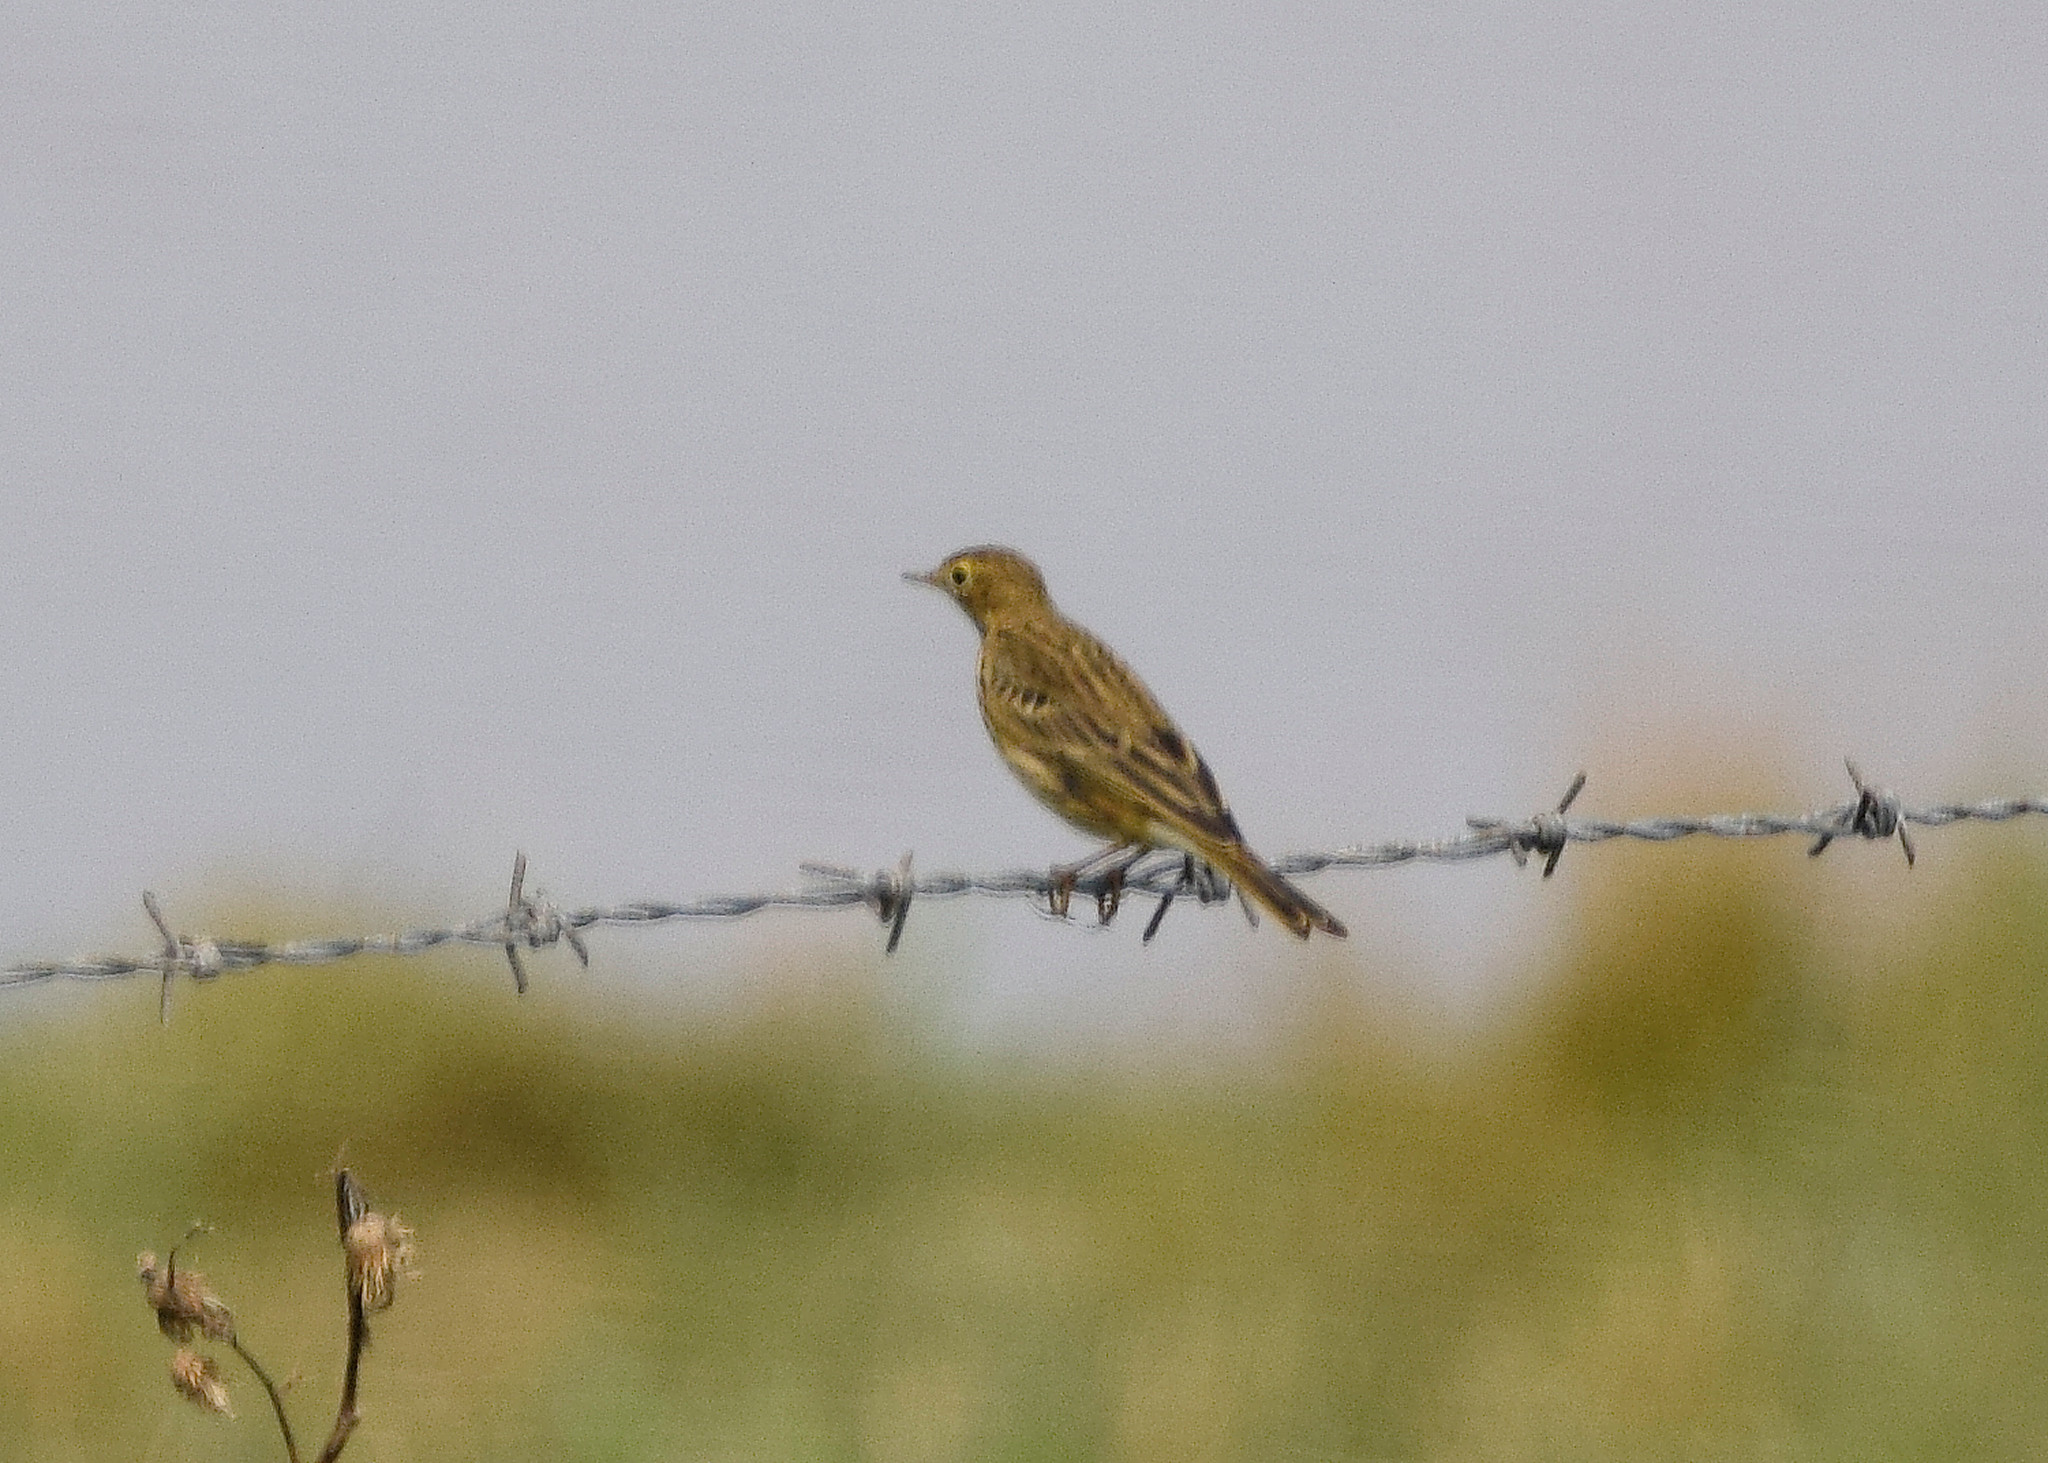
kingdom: Animalia
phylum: Chordata
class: Aves
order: Passeriformes
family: Motacillidae
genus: Anthus
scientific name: Anthus pratensis
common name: Meadow pipit
